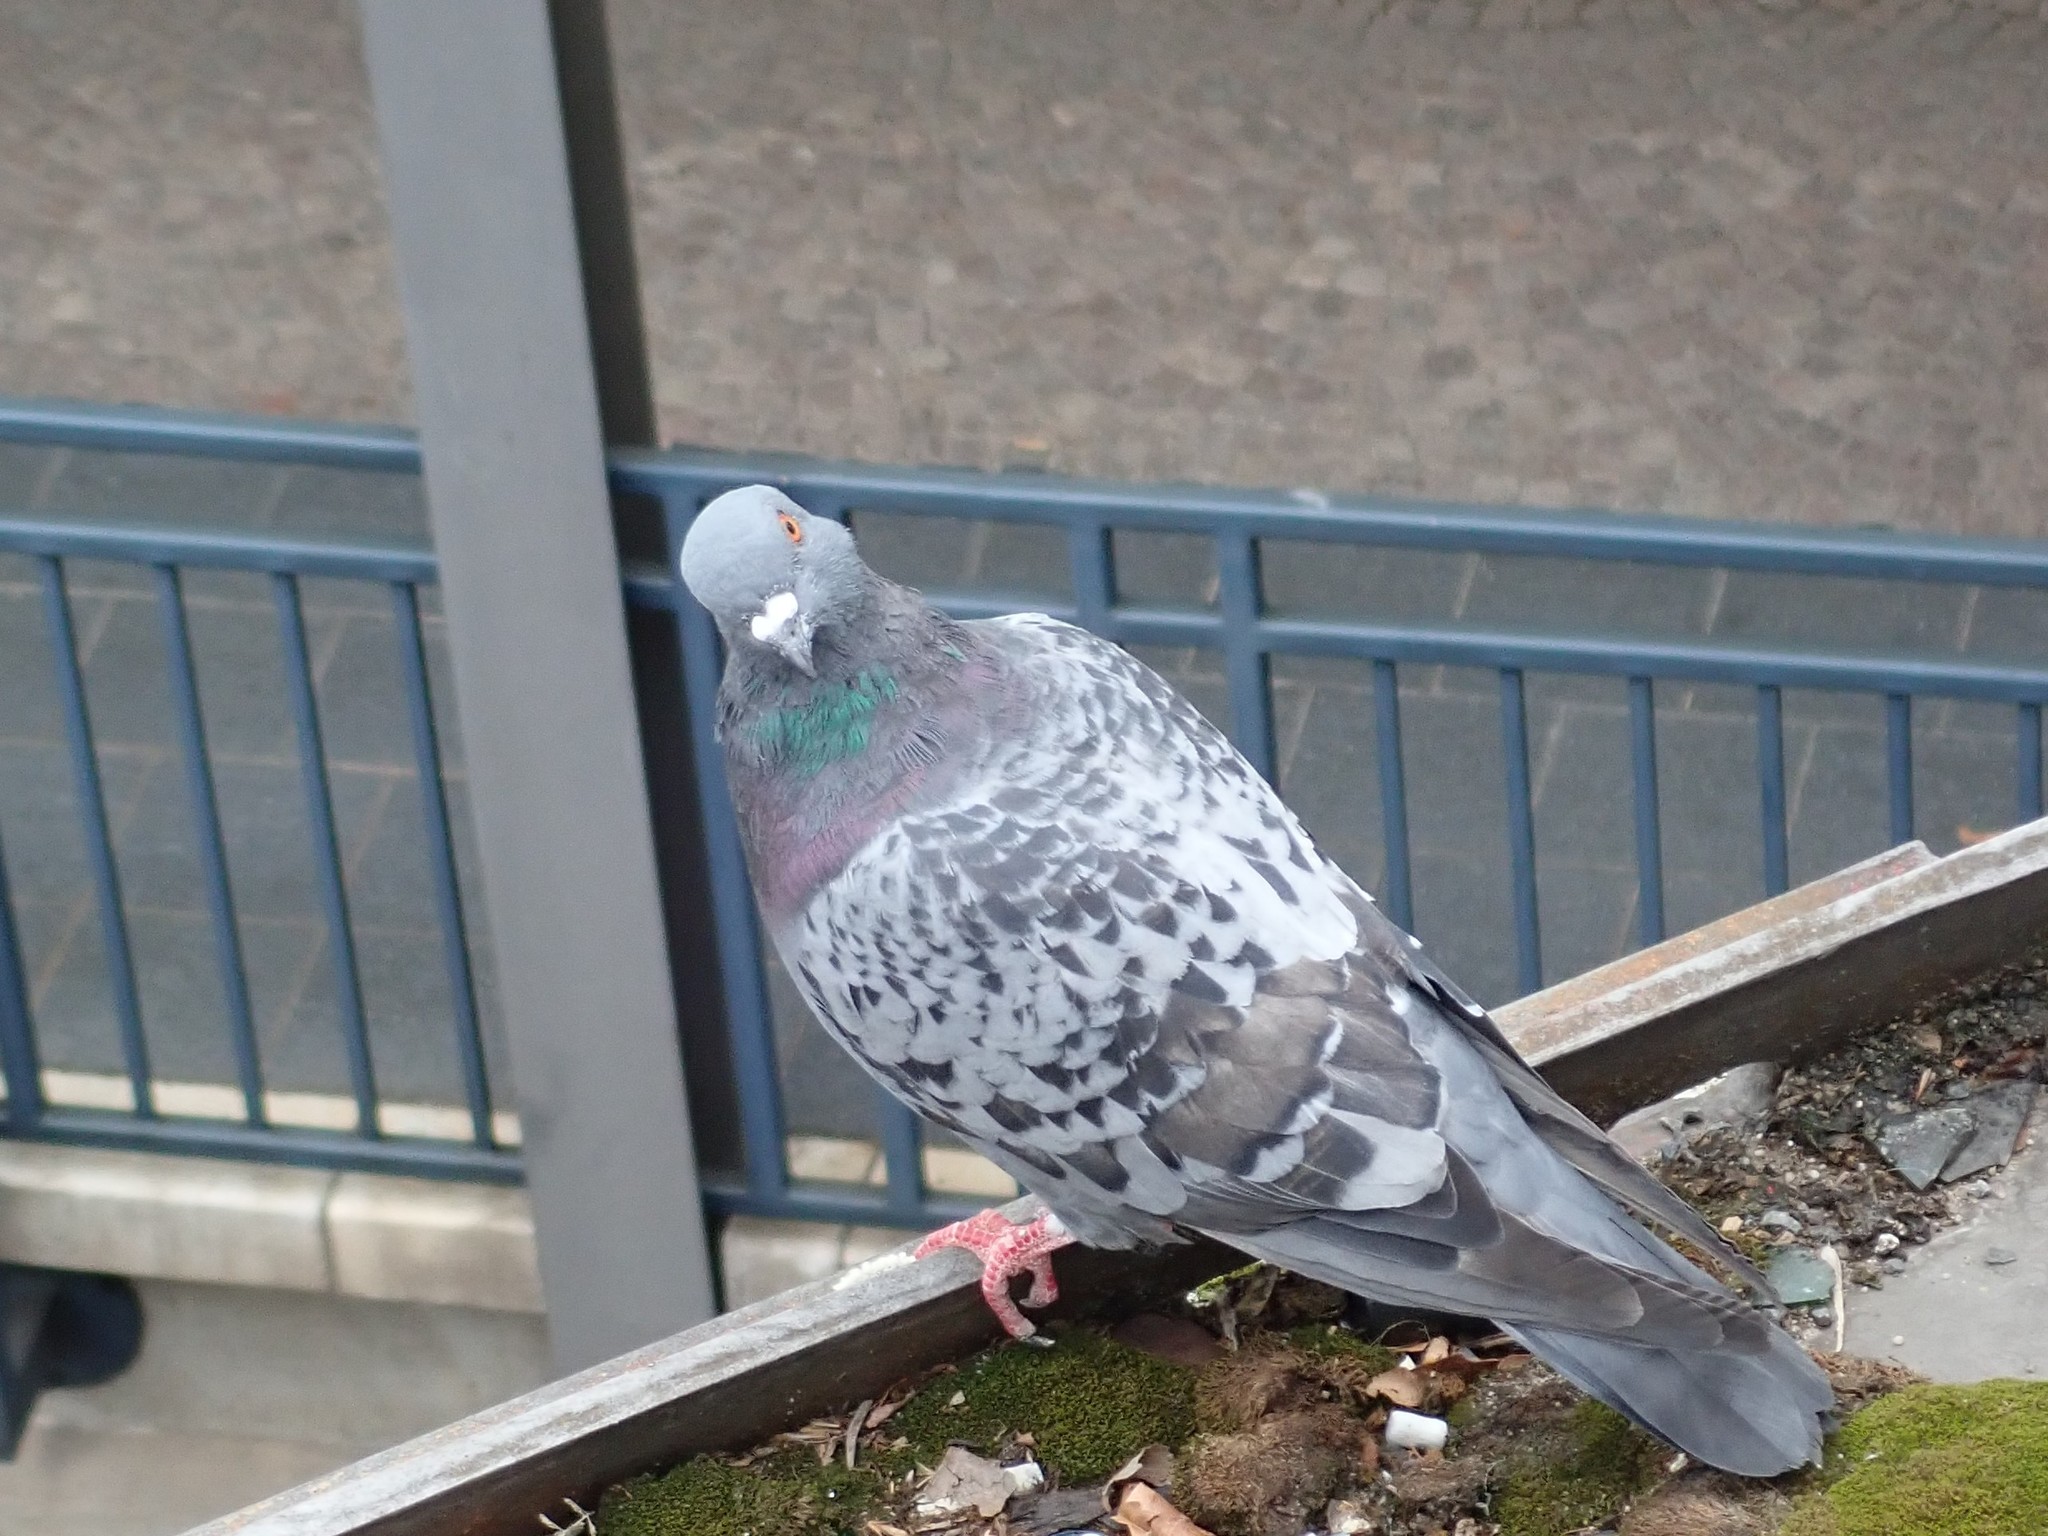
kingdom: Animalia
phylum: Chordata
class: Aves
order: Columbiformes
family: Columbidae
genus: Columba
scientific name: Columba livia
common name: Rock pigeon
